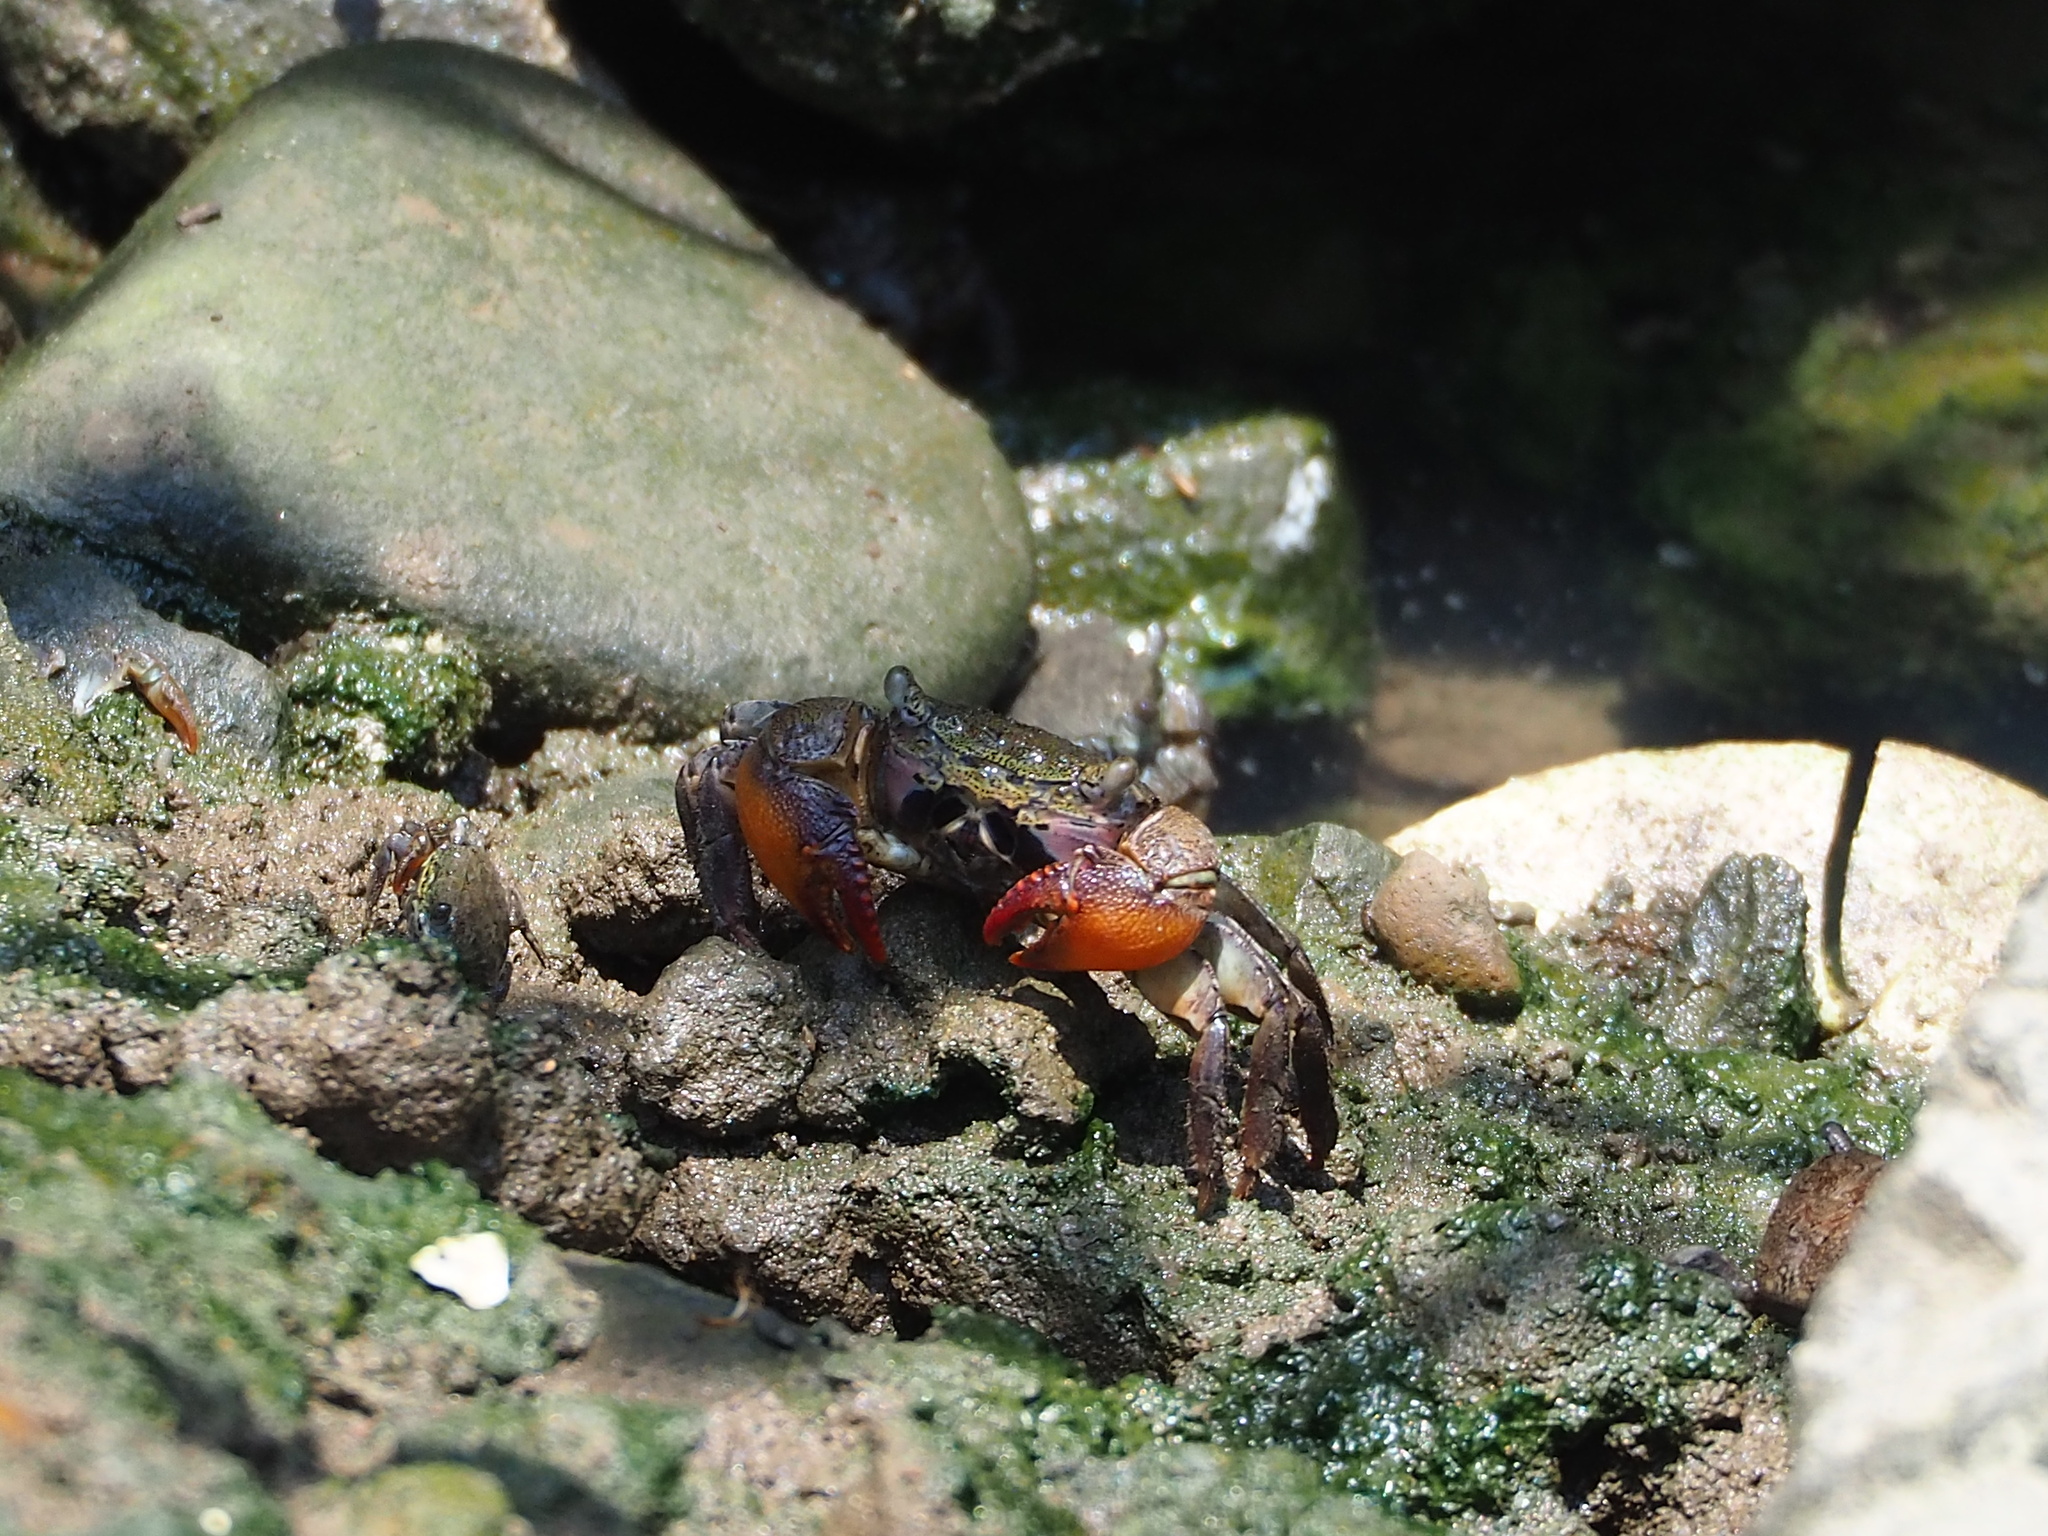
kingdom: Animalia
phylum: Arthropoda
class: Malacostraca
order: Decapoda
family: Sesarmidae
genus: Parasesarma
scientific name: Parasesarma insulare
